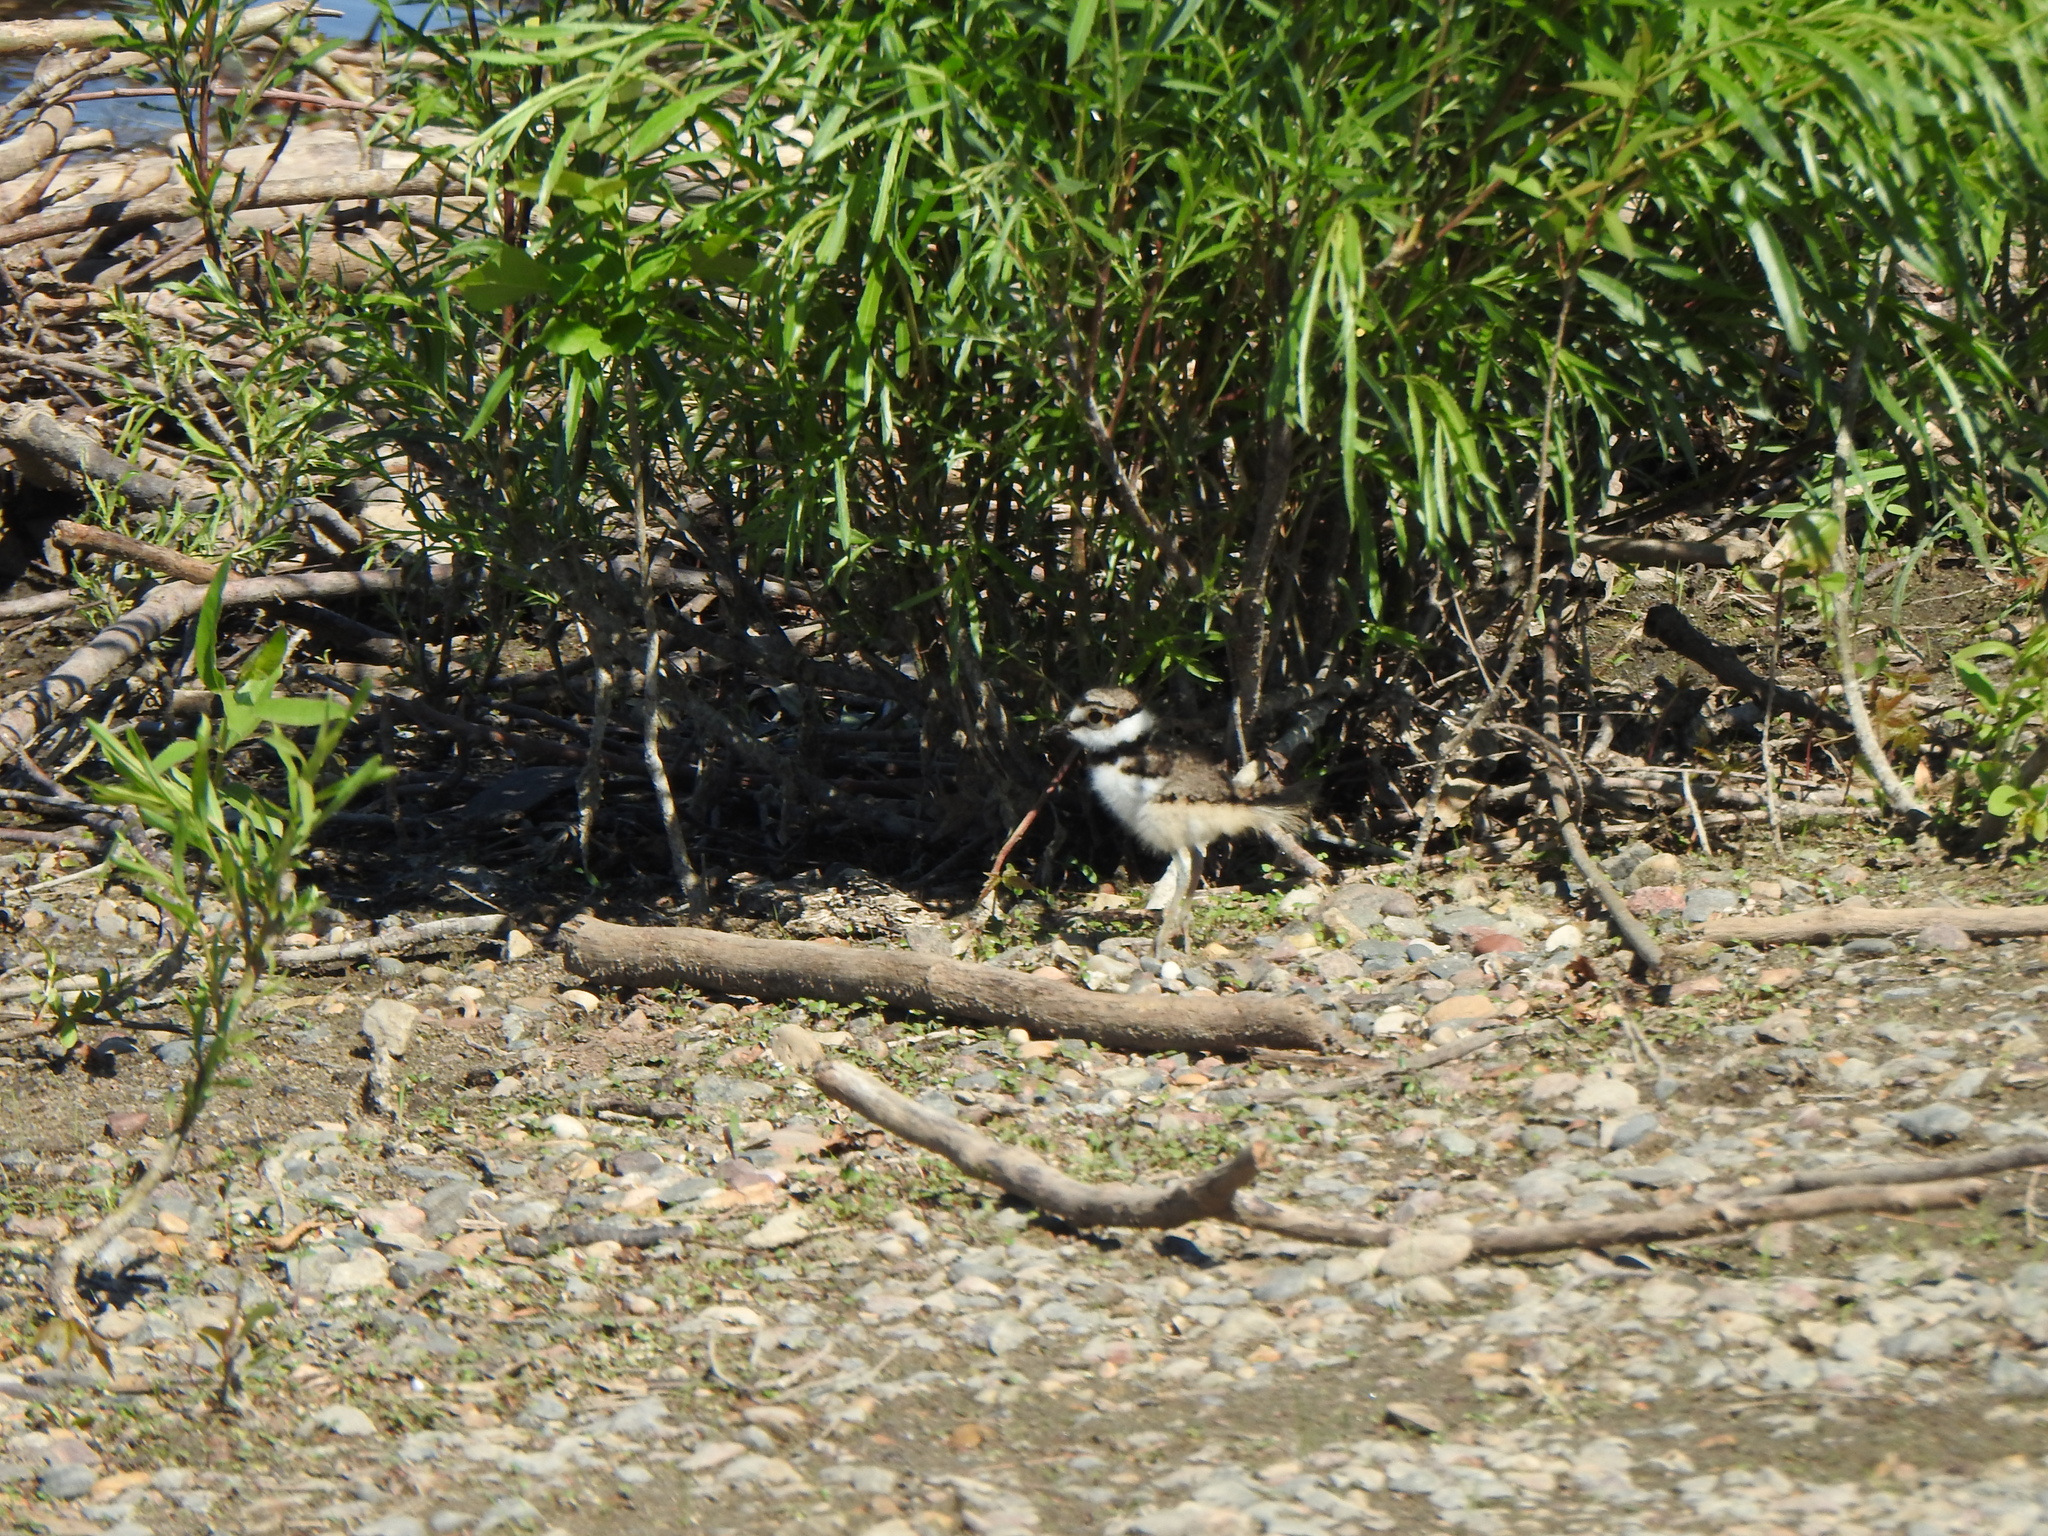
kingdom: Animalia
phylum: Chordata
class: Aves
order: Charadriiformes
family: Charadriidae
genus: Charadrius
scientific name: Charadrius vociferus
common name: Killdeer
